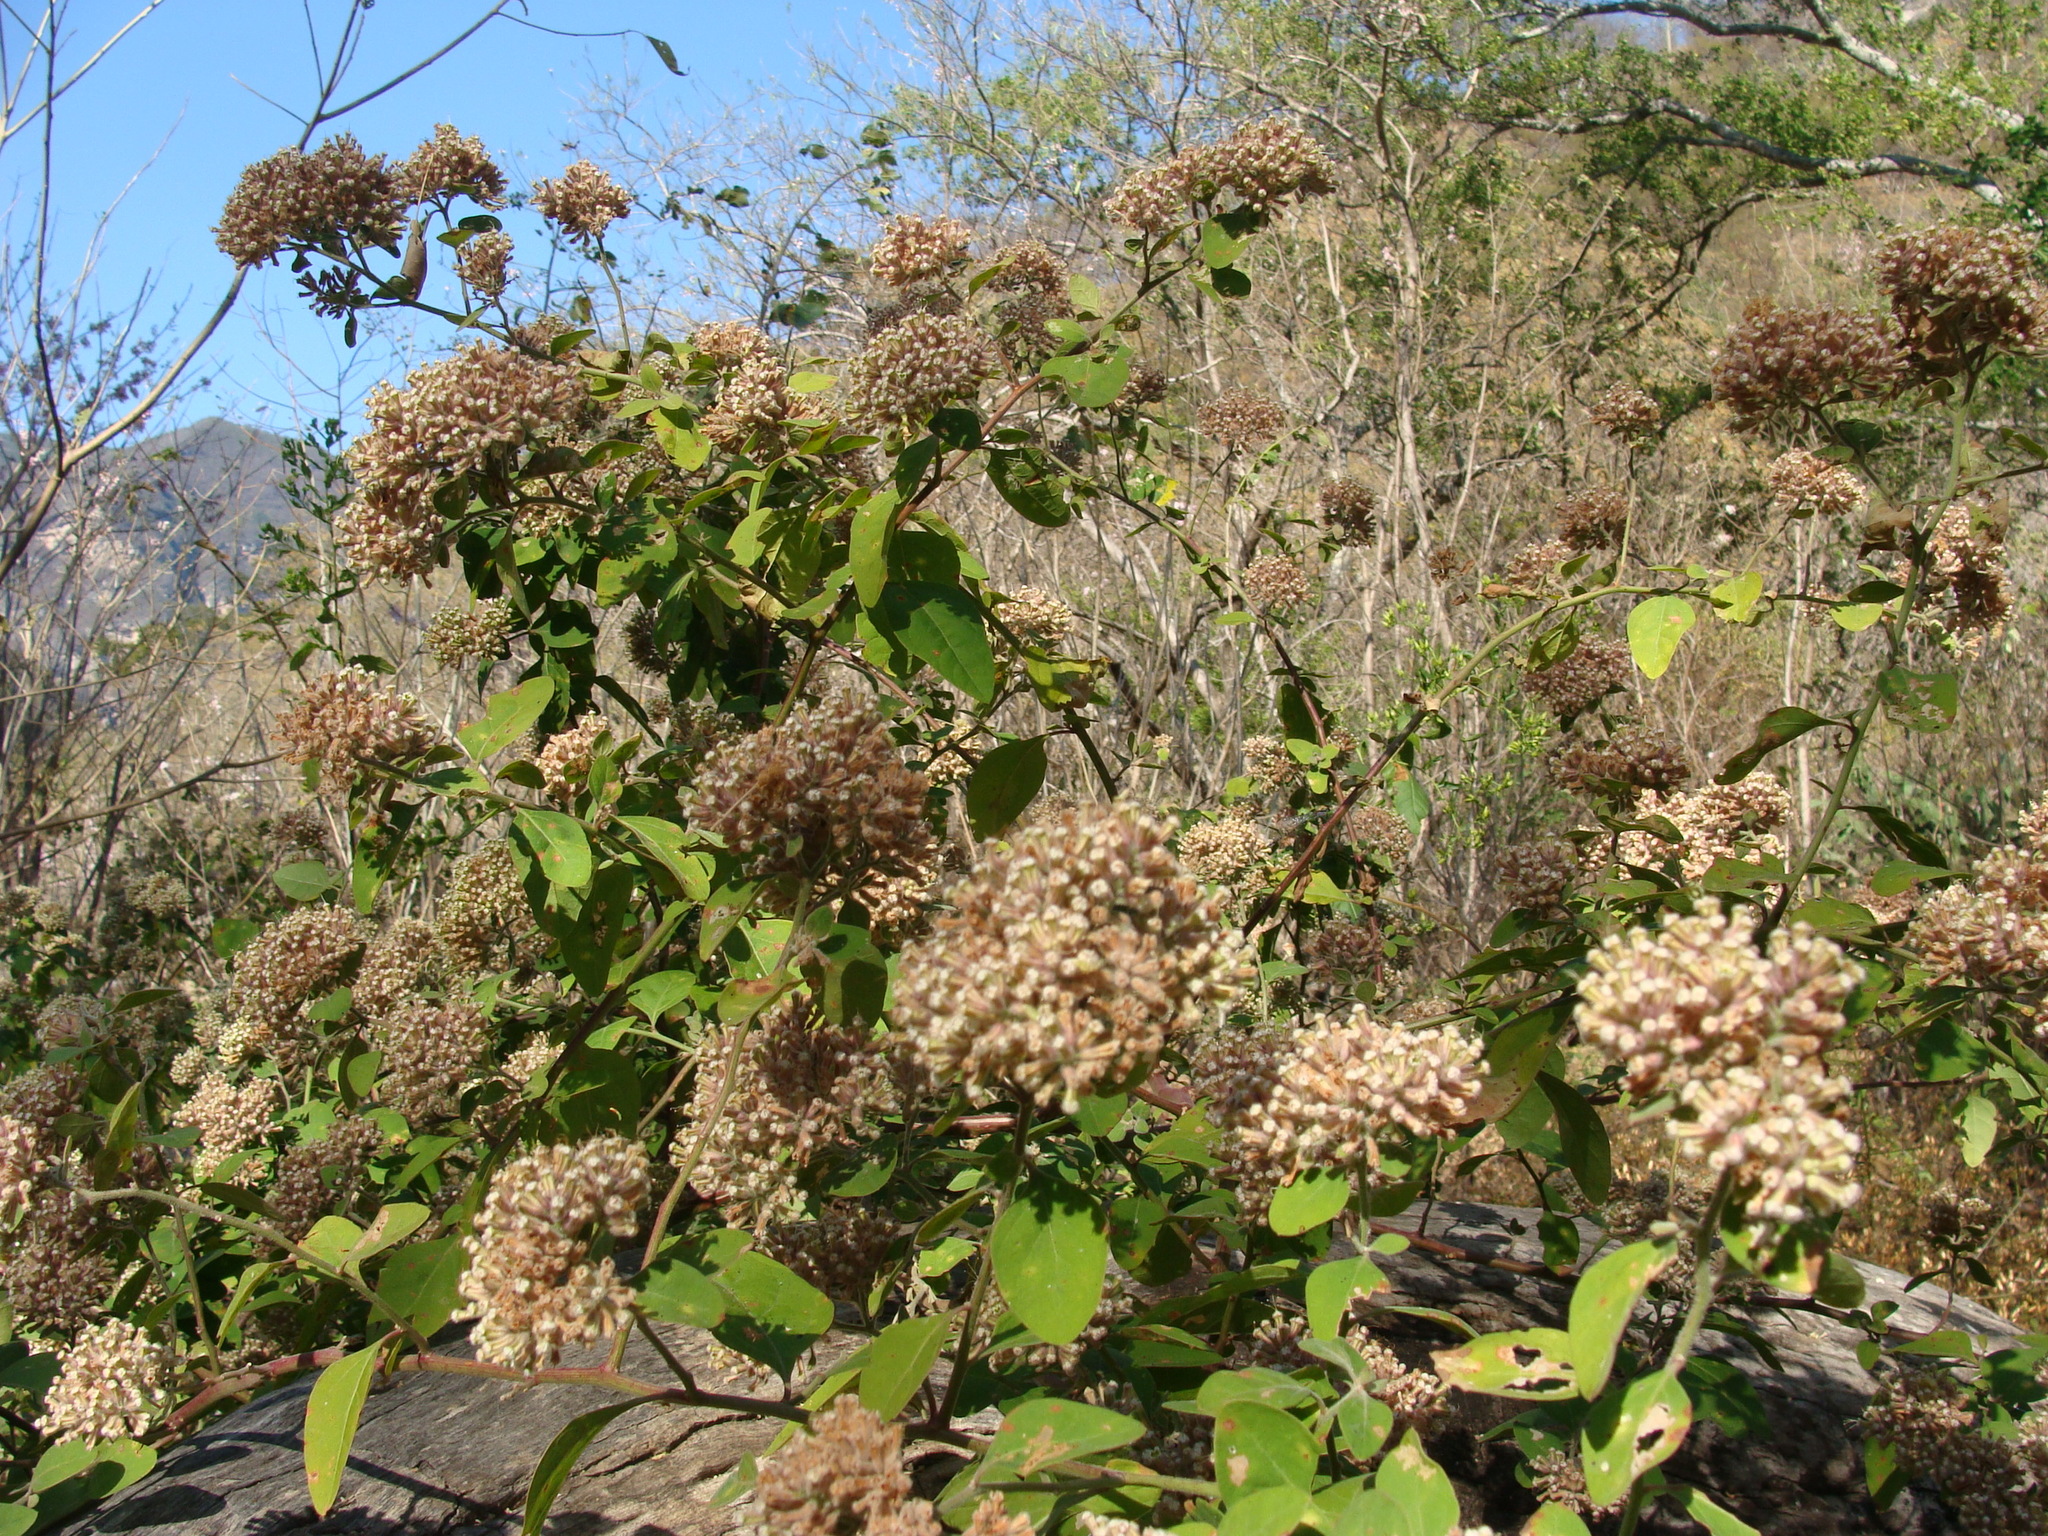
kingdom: Plantae
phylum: Tracheophyta
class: Magnoliopsida
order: Caryophyllales
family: Nyctaginaceae
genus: Salpianthus
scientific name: Salpianthus arenarius
